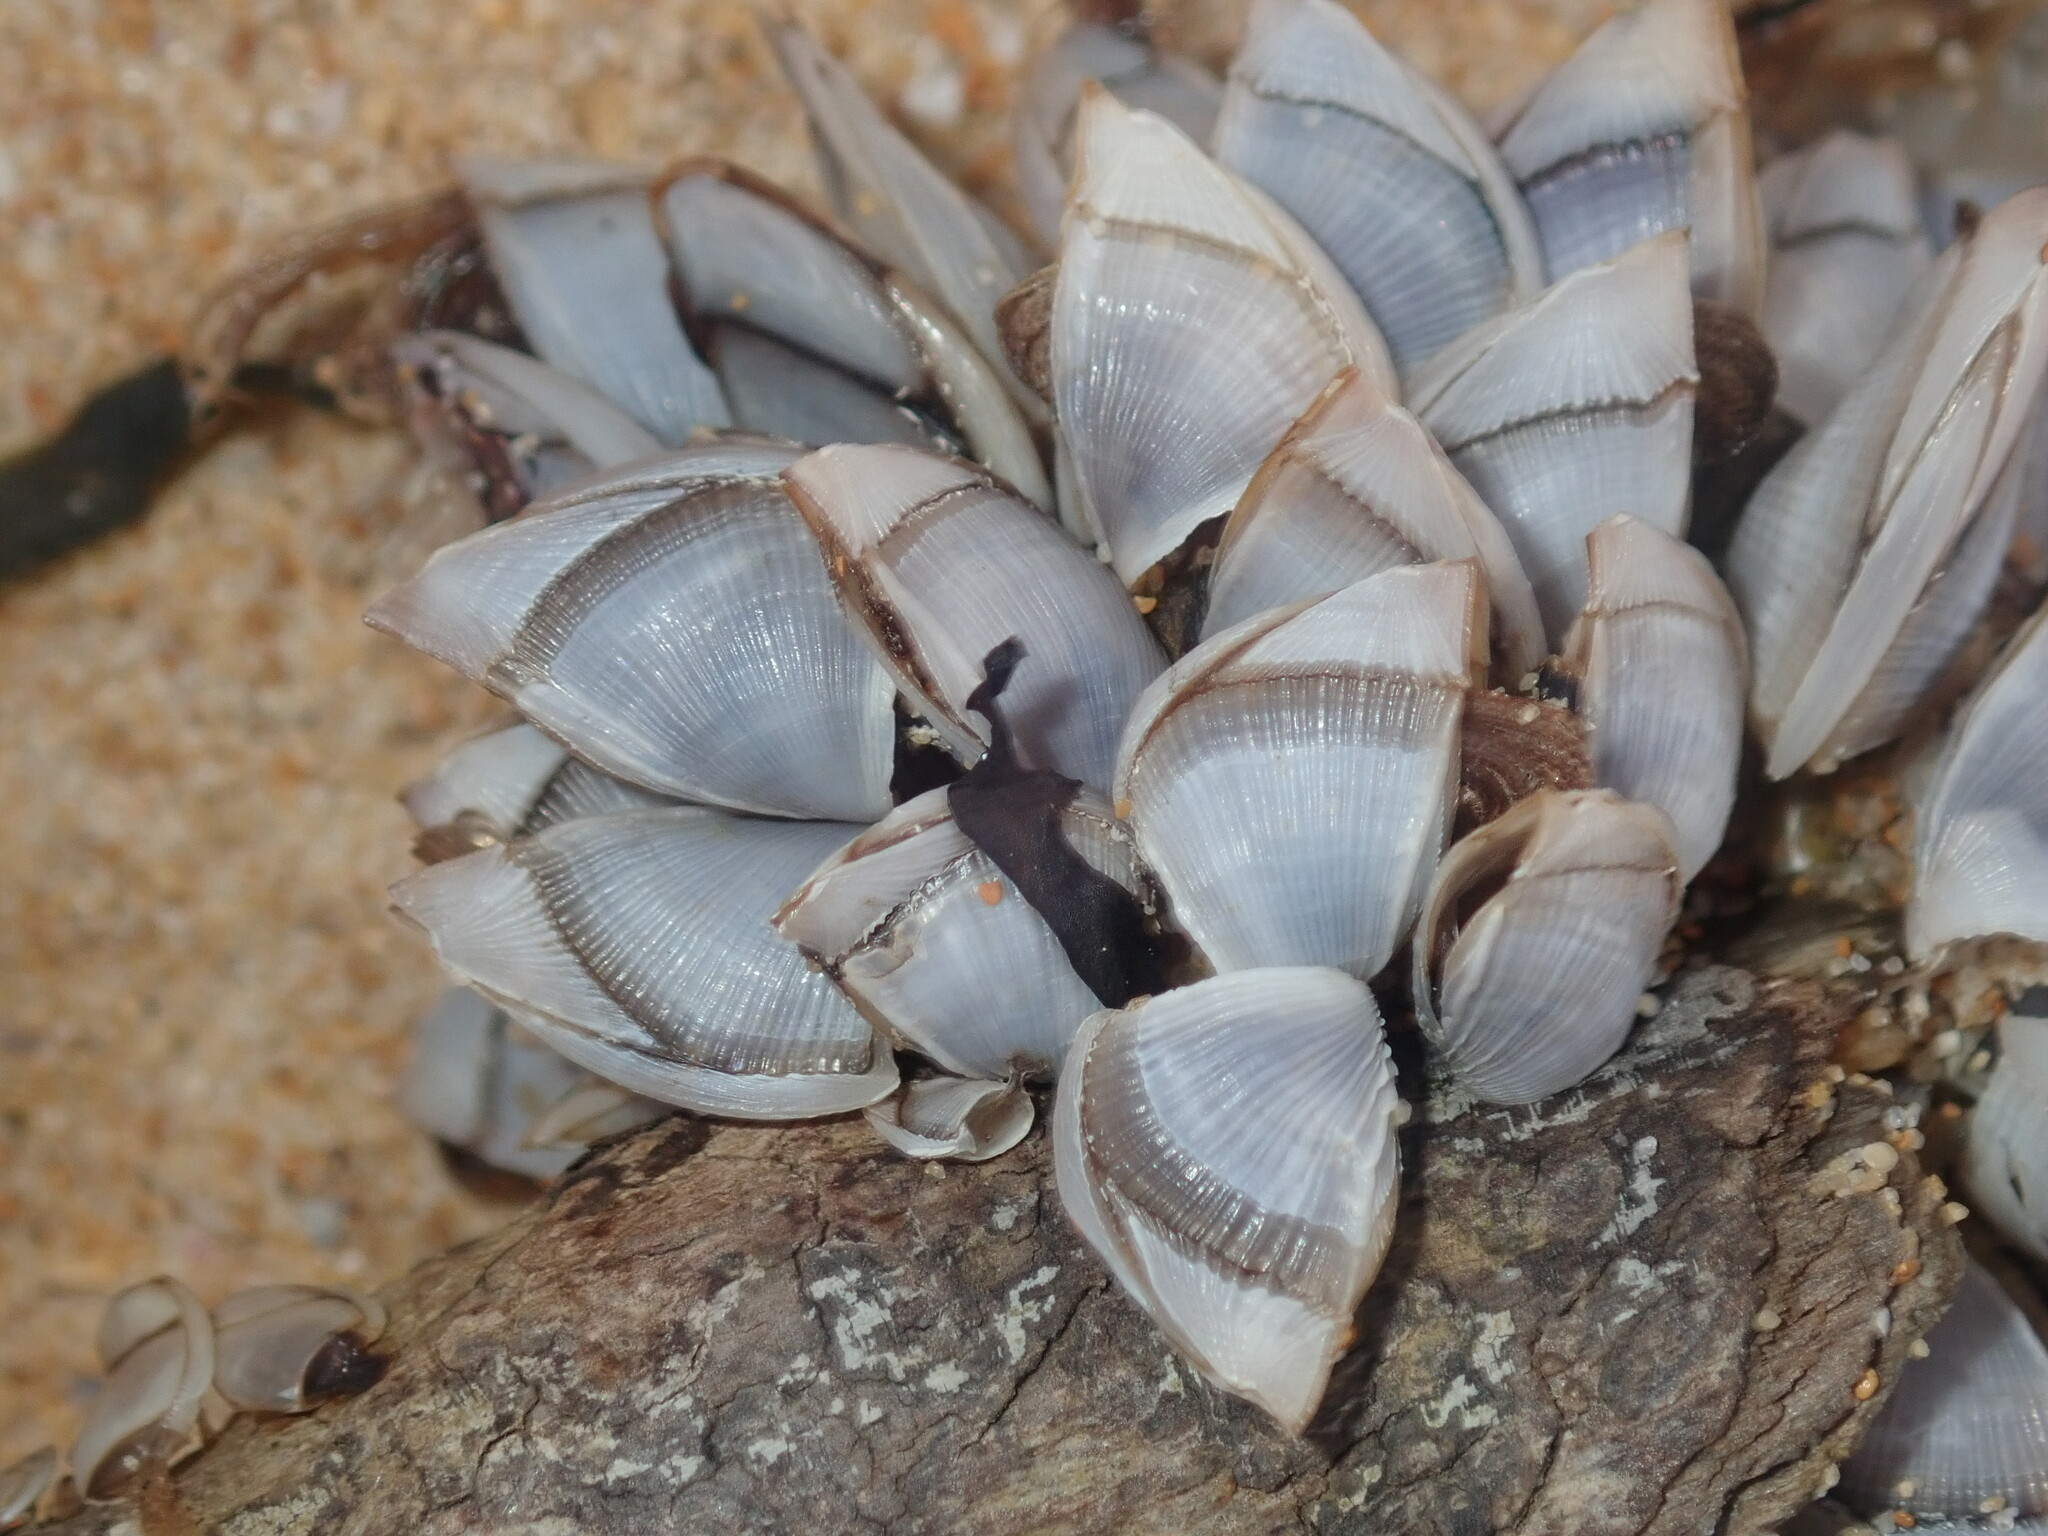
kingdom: Animalia
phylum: Arthropoda
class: Maxillopoda
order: Pedunculata
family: Lepadidae
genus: Lepas
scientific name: Lepas pectinata
